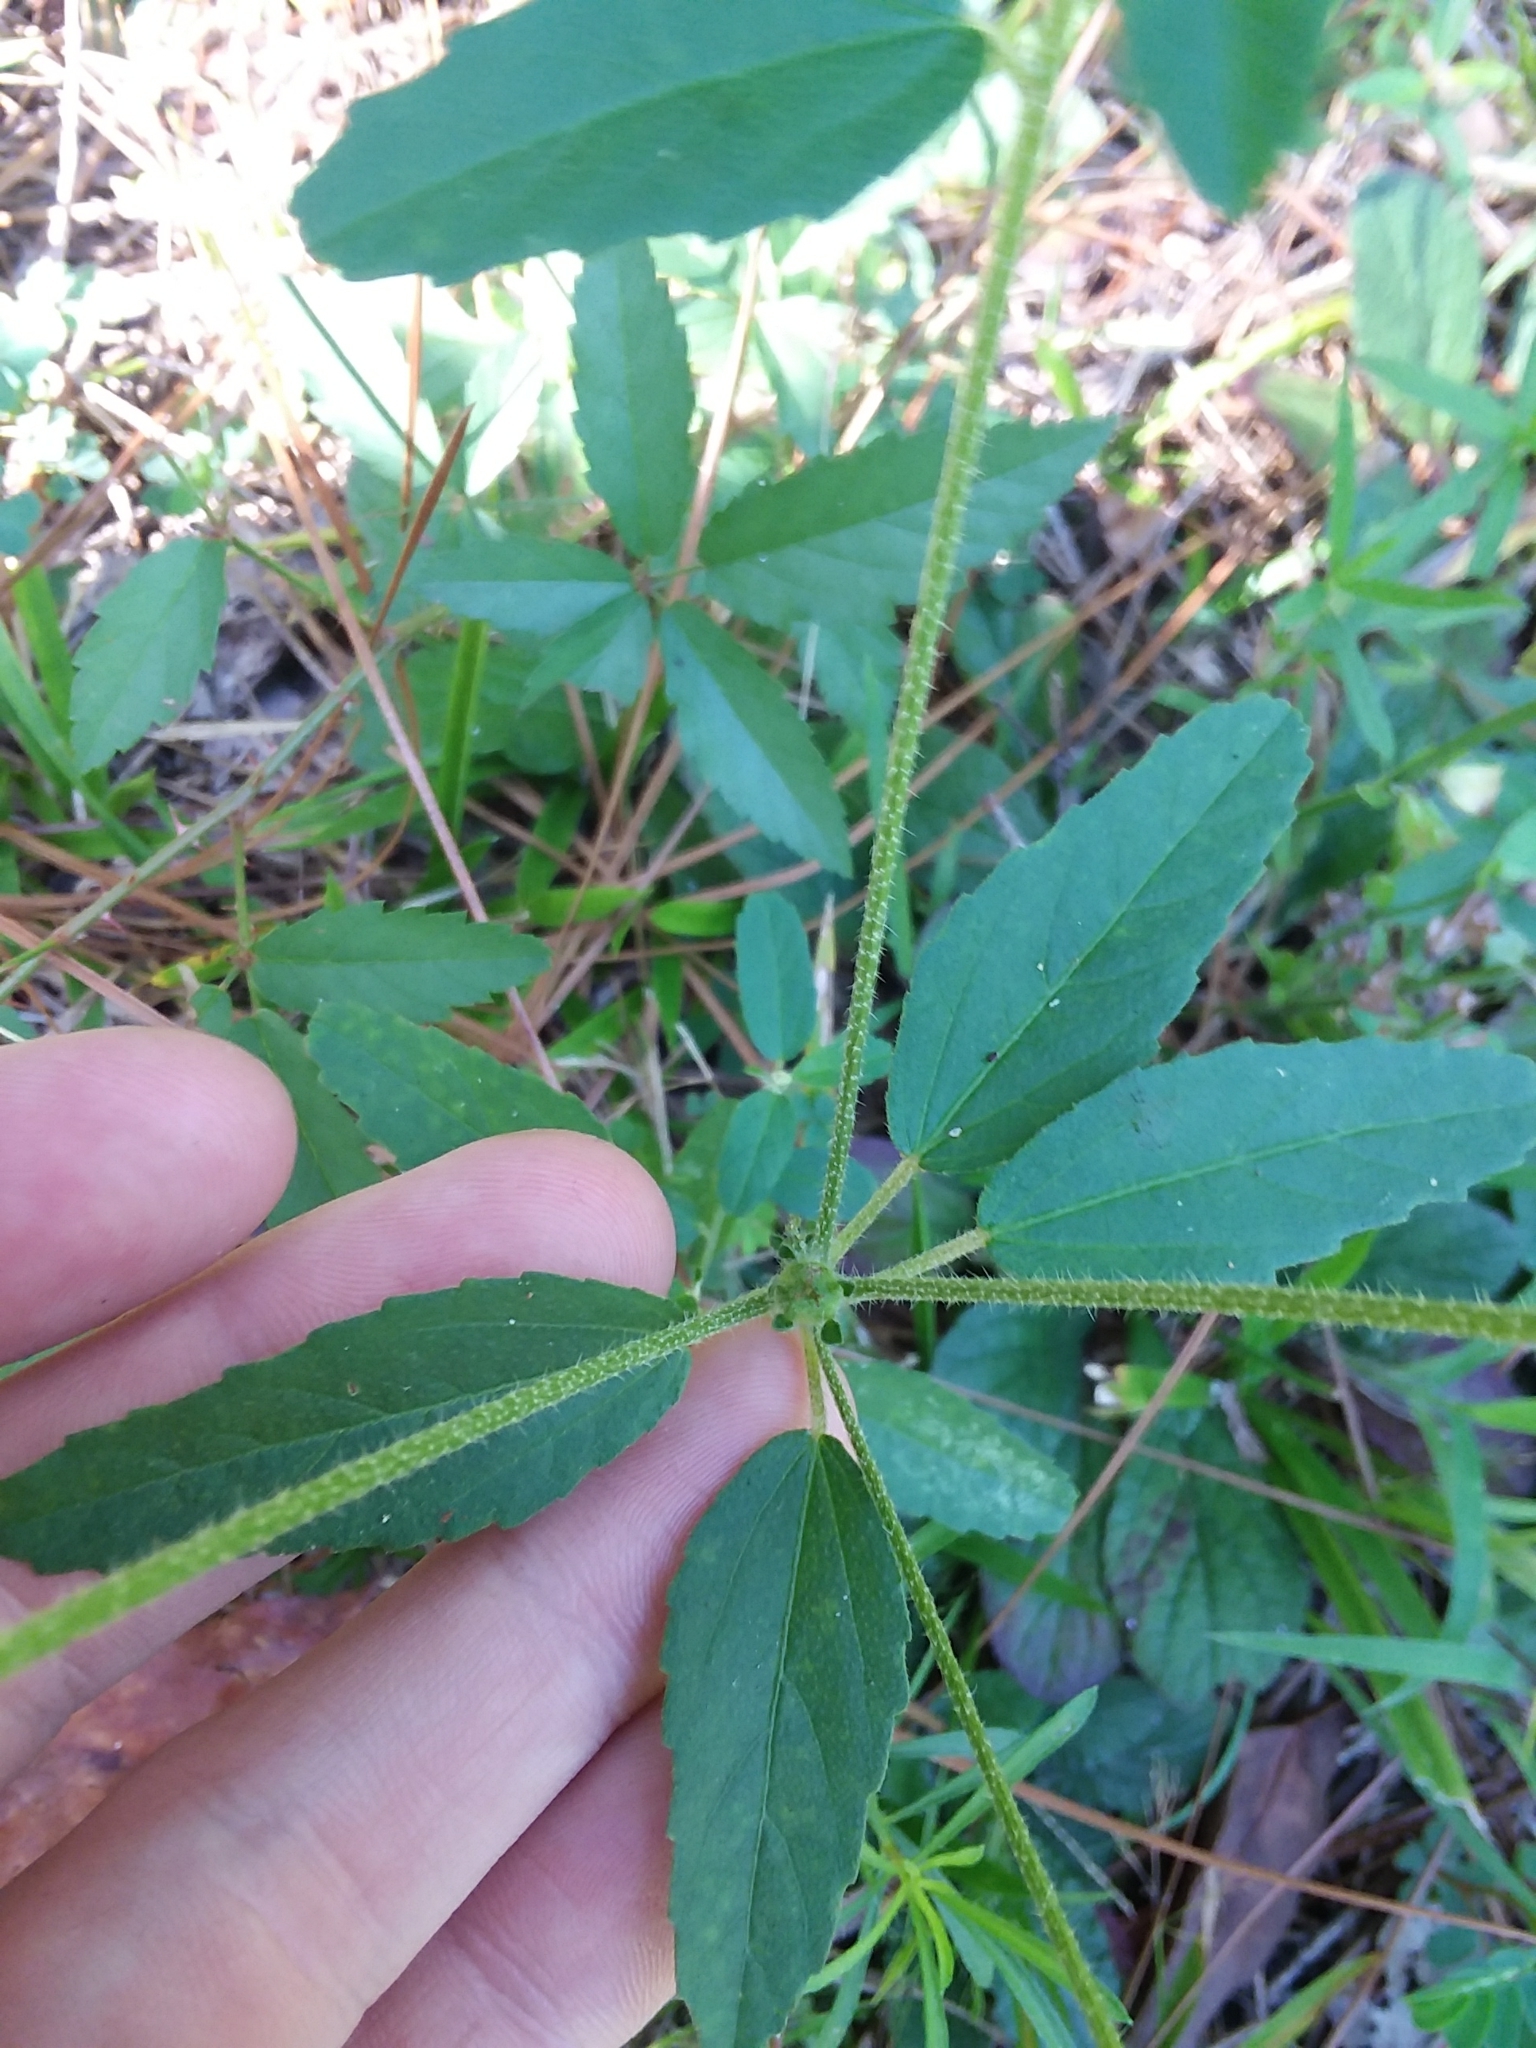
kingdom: Plantae
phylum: Tracheophyta
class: Magnoliopsida
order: Malpighiales
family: Euphorbiaceae
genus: Croton
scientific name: Croton glandulosus
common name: Tropic croton
